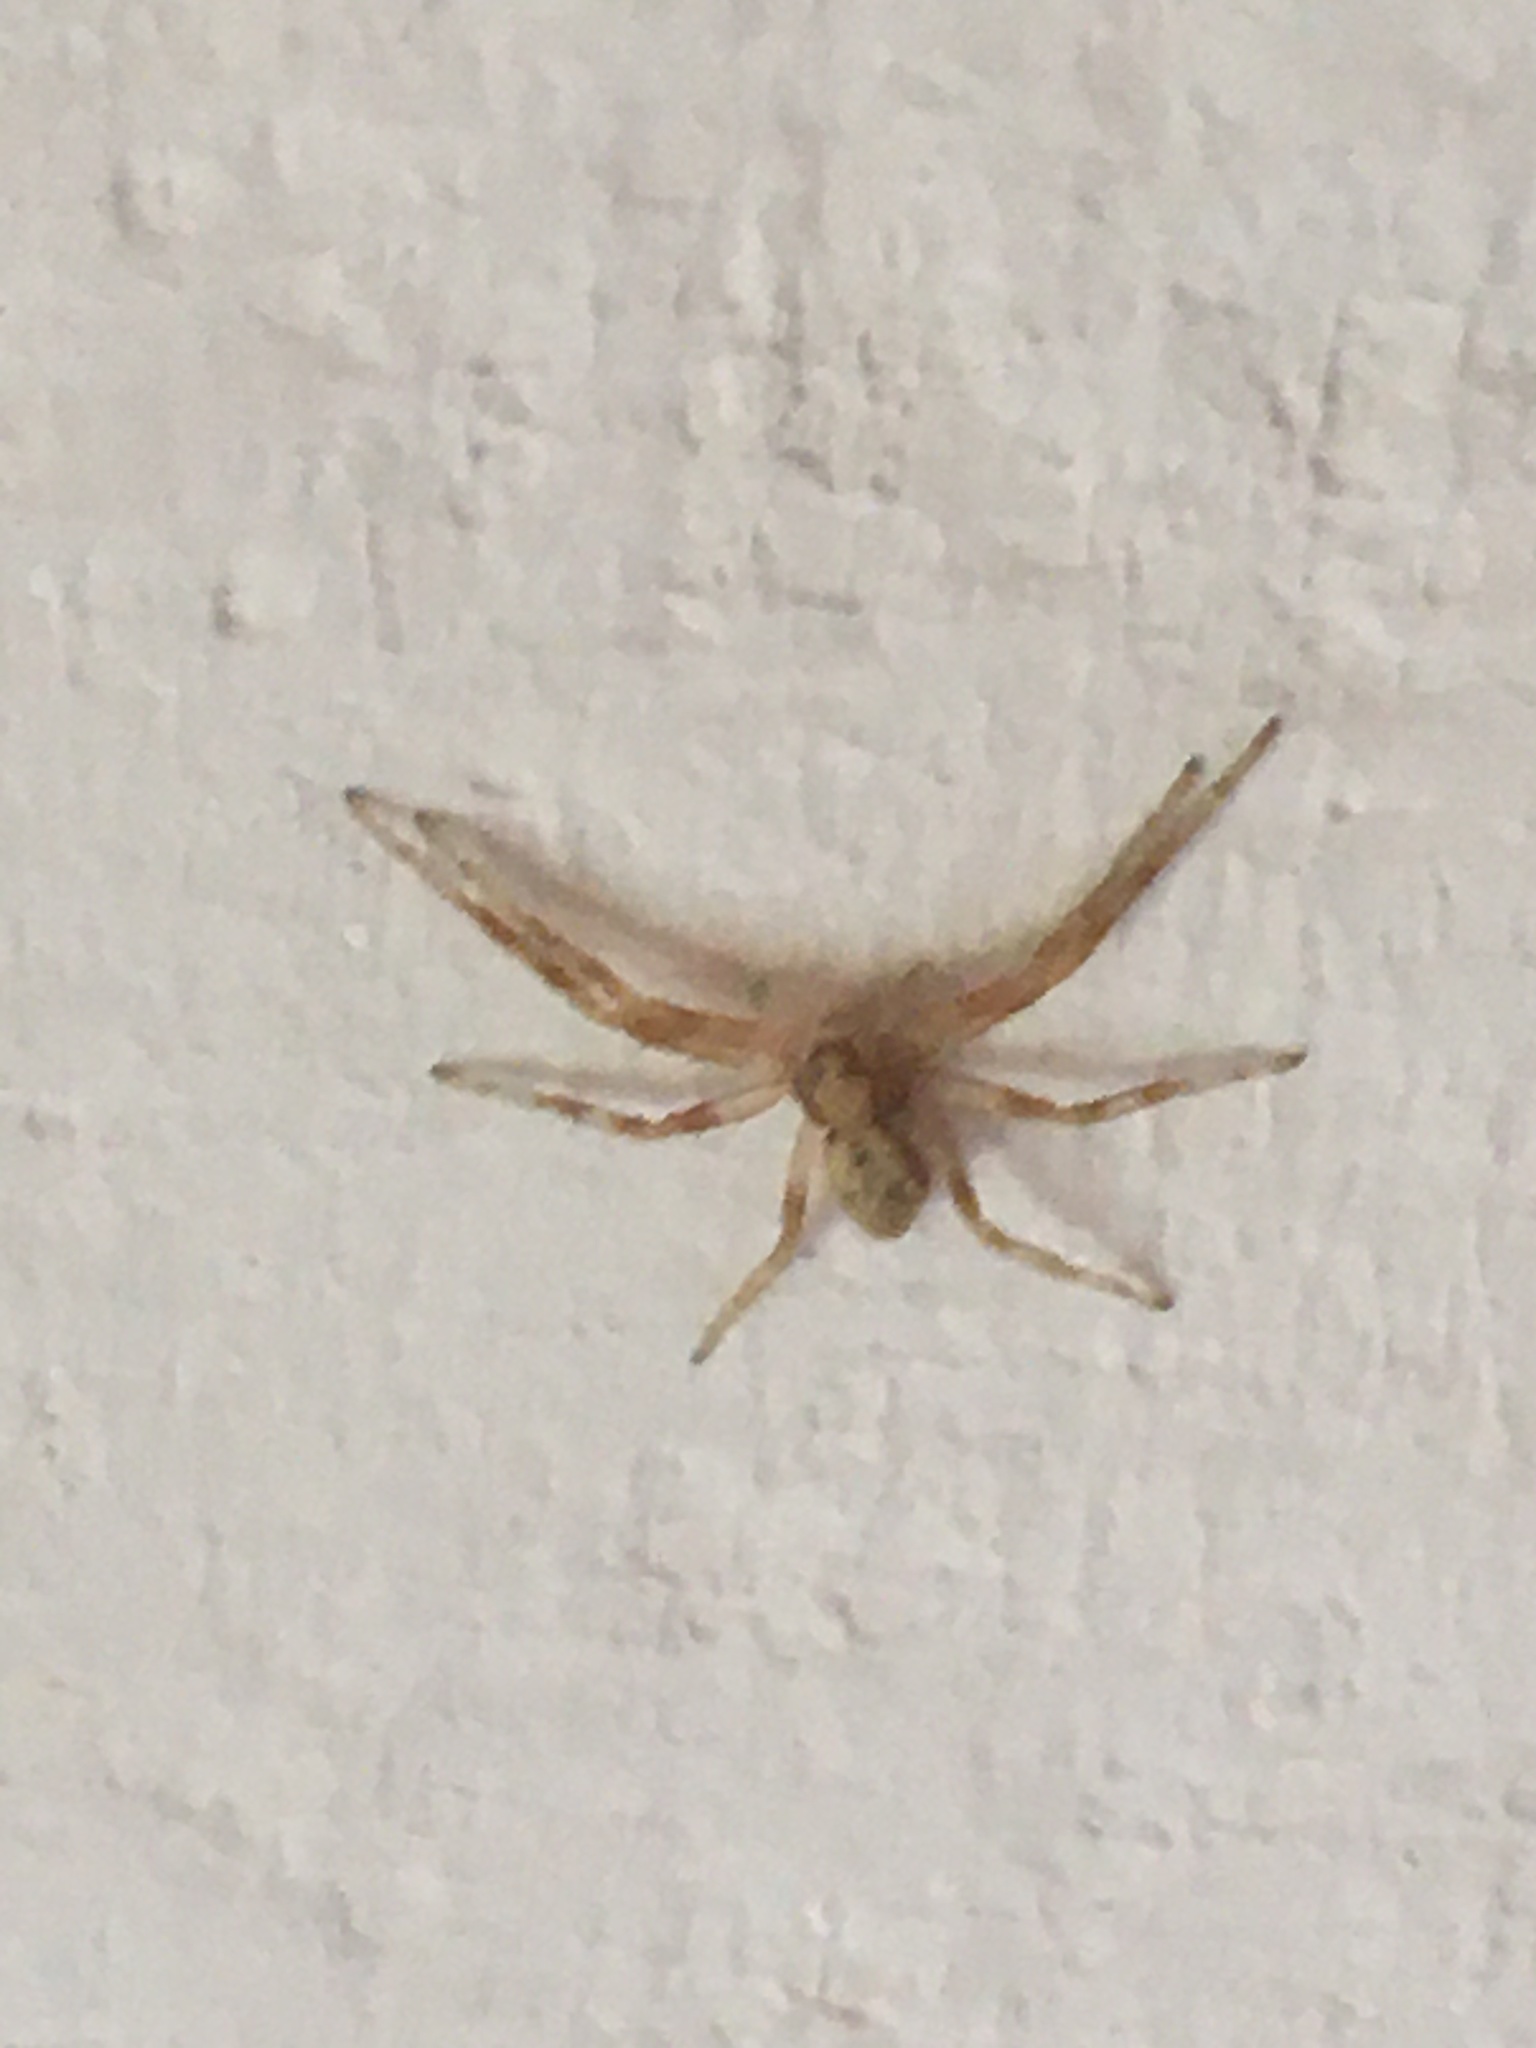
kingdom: Animalia
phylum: Arthropoda
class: Arachnida
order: Araneae
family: Philodromidae
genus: Philodromus
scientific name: Philodromus
